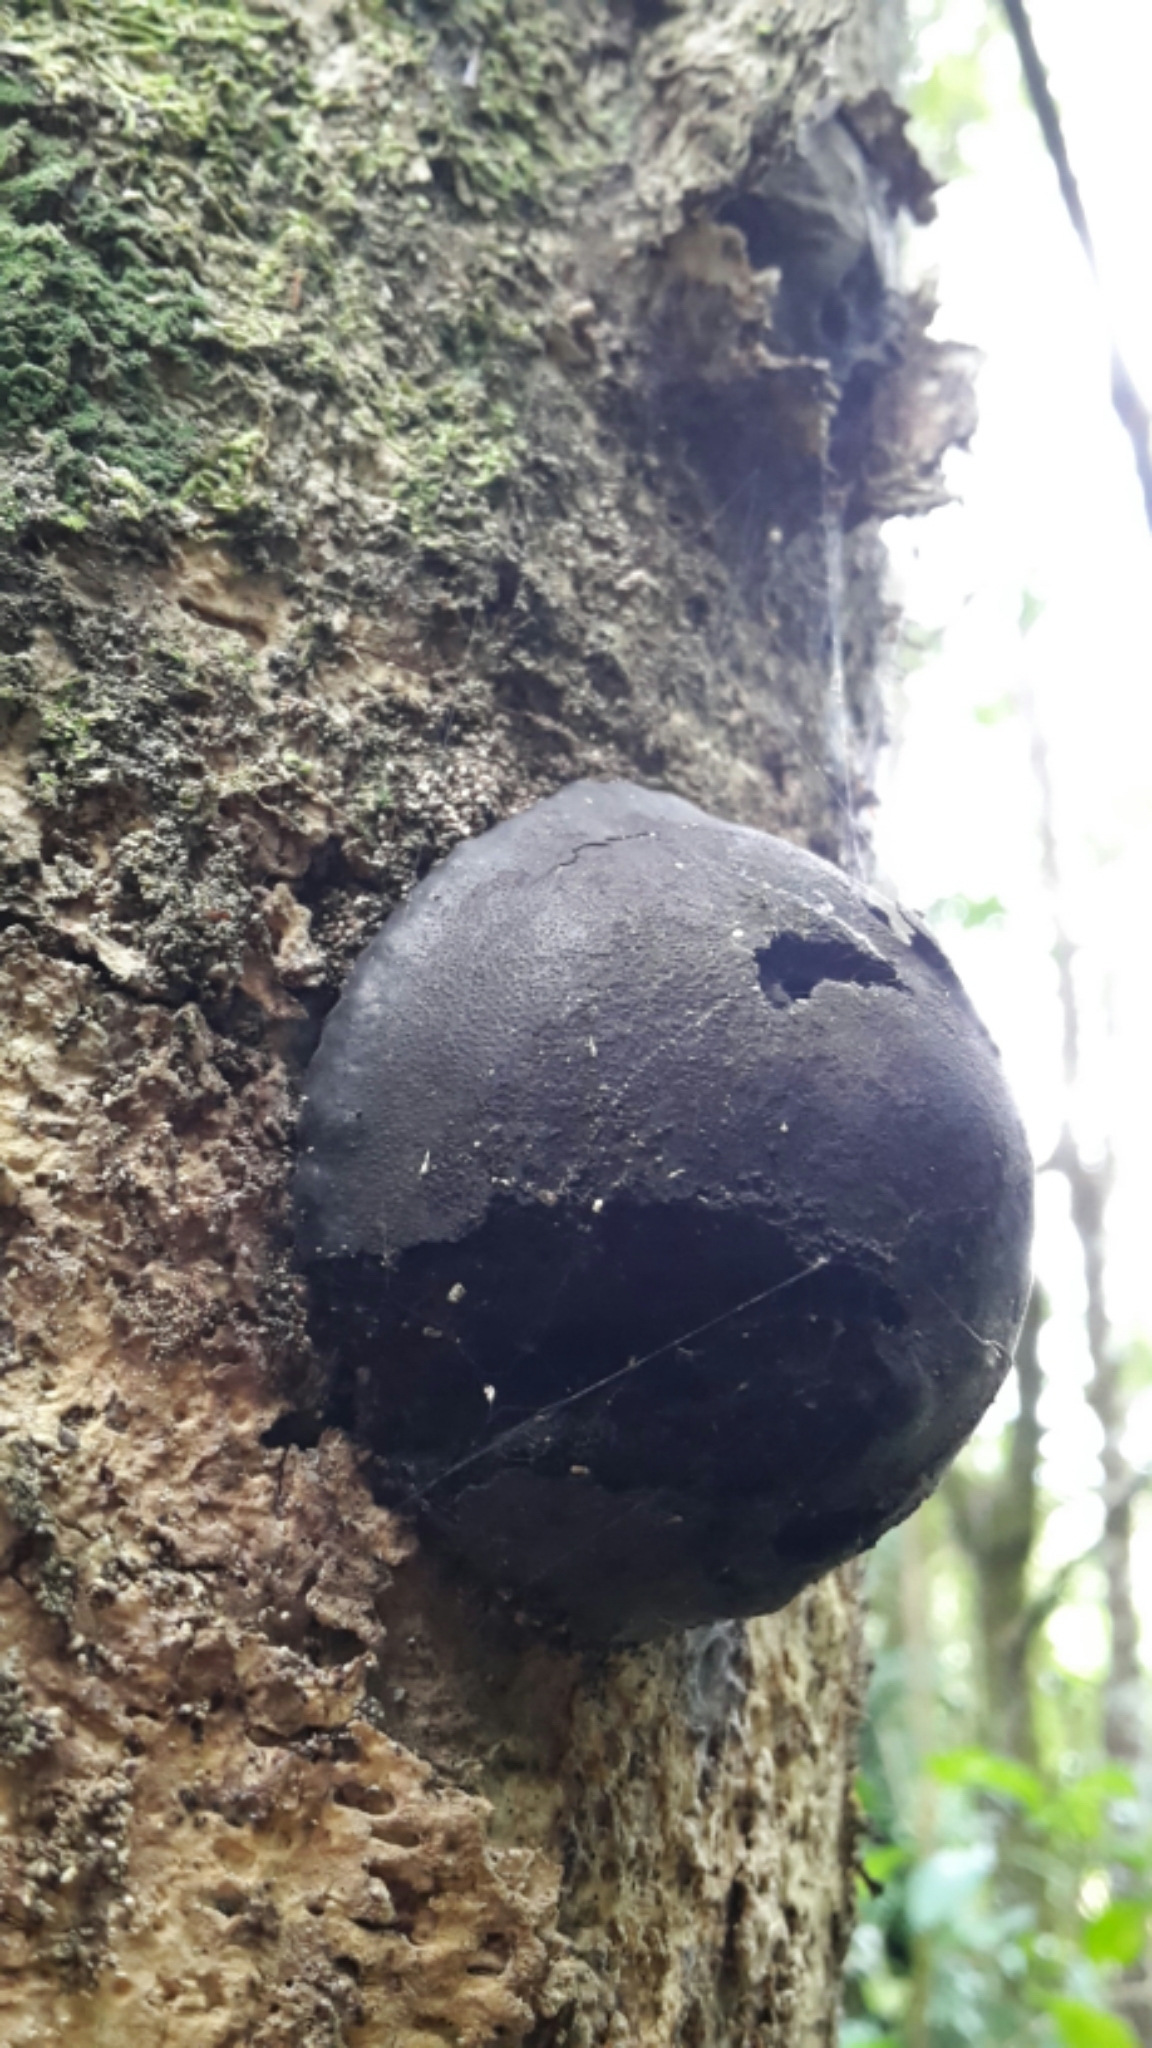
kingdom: Fungi
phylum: Ascomycota
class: Sordariomycetes
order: Xylariales
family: Hypoxylaceae
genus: Daldinia
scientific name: Daldinia
